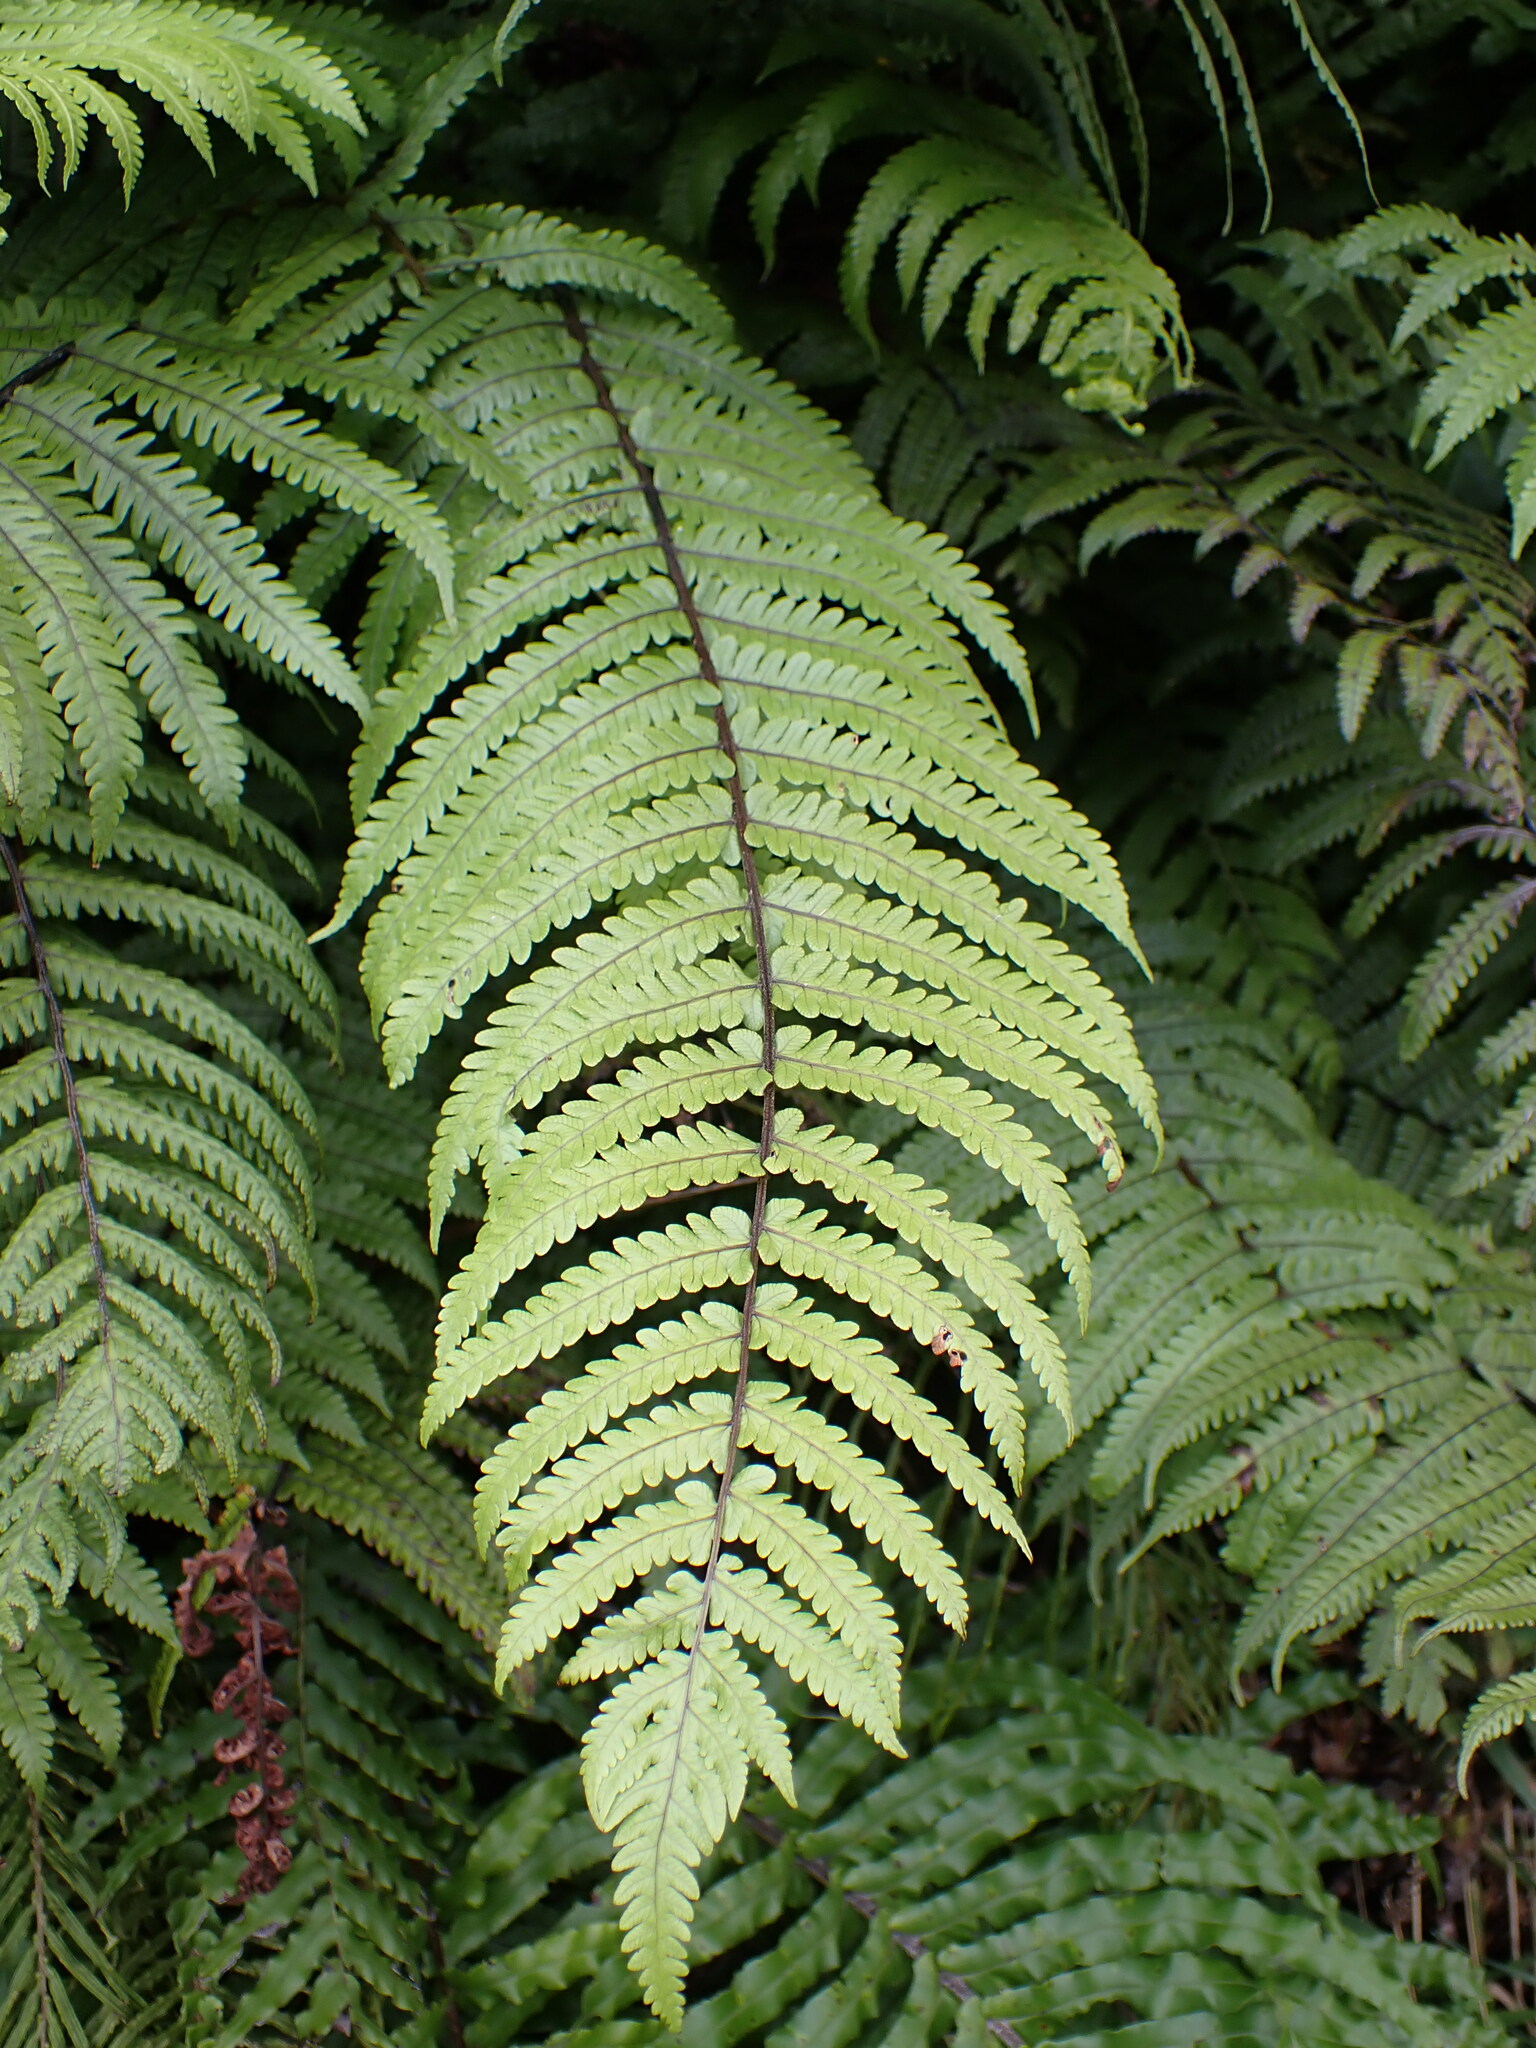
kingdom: Plantae
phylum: Tracheophyta
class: Polypodiopsida
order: Polypodiales
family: Thelypteridaceae
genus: Pakau
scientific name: Pakau pennigera
